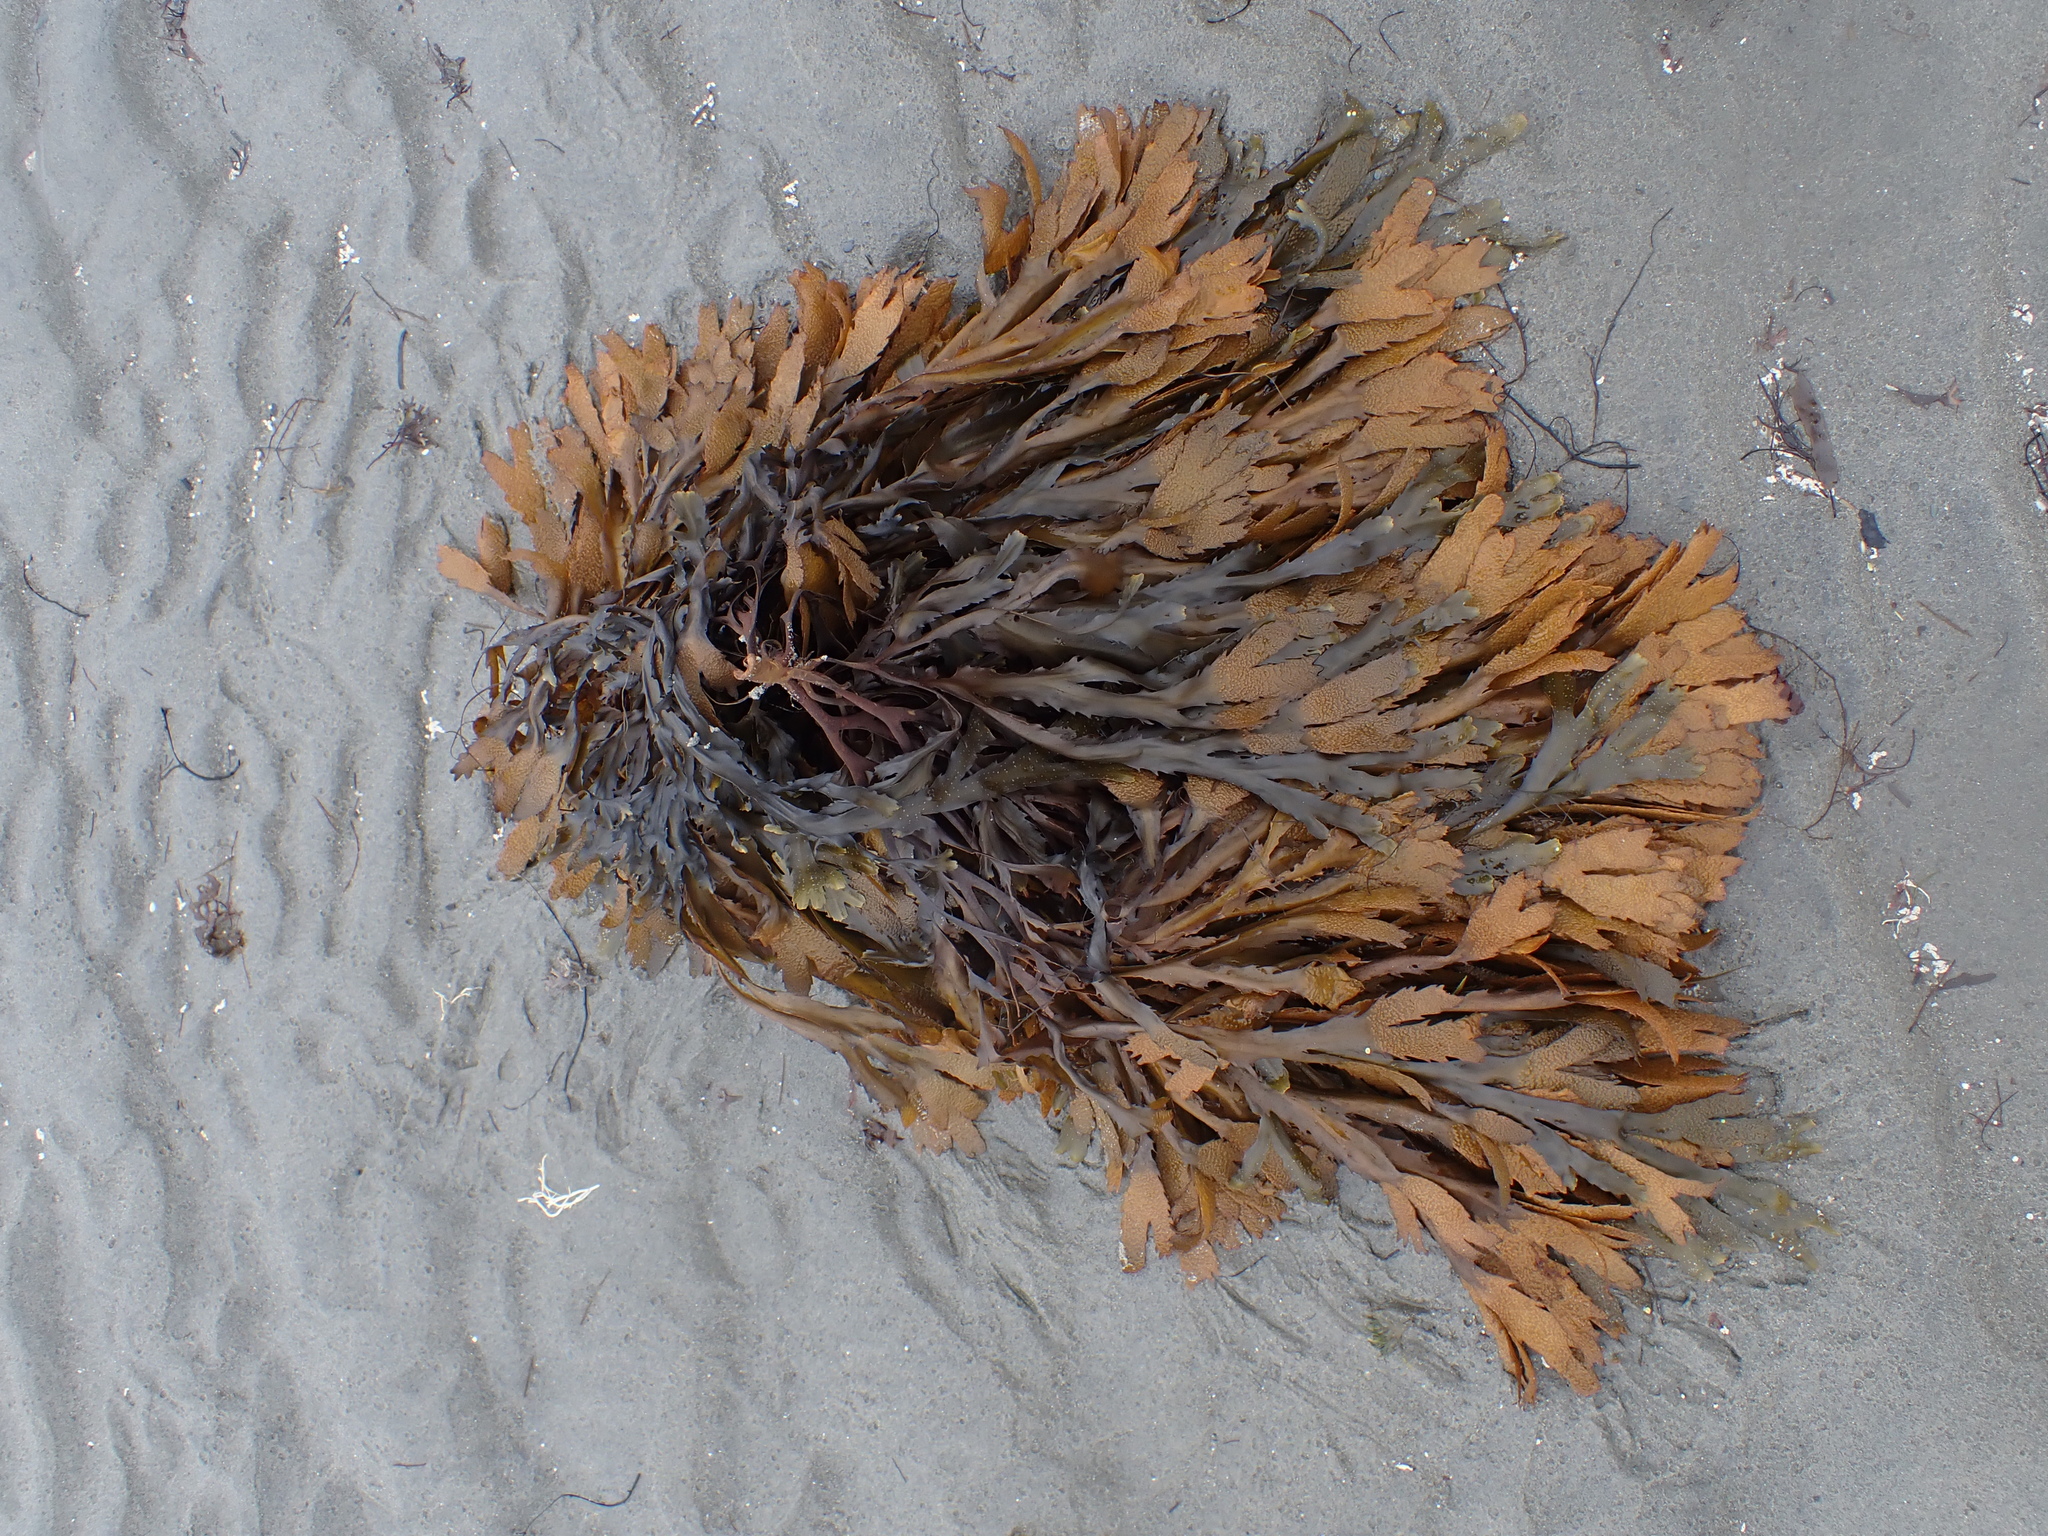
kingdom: Chromista
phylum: Ochrophyta
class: Phaeophyceae
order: Fucales
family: Fucaceae
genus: Fucus
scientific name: Fucus serratus
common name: Toothed wrack
